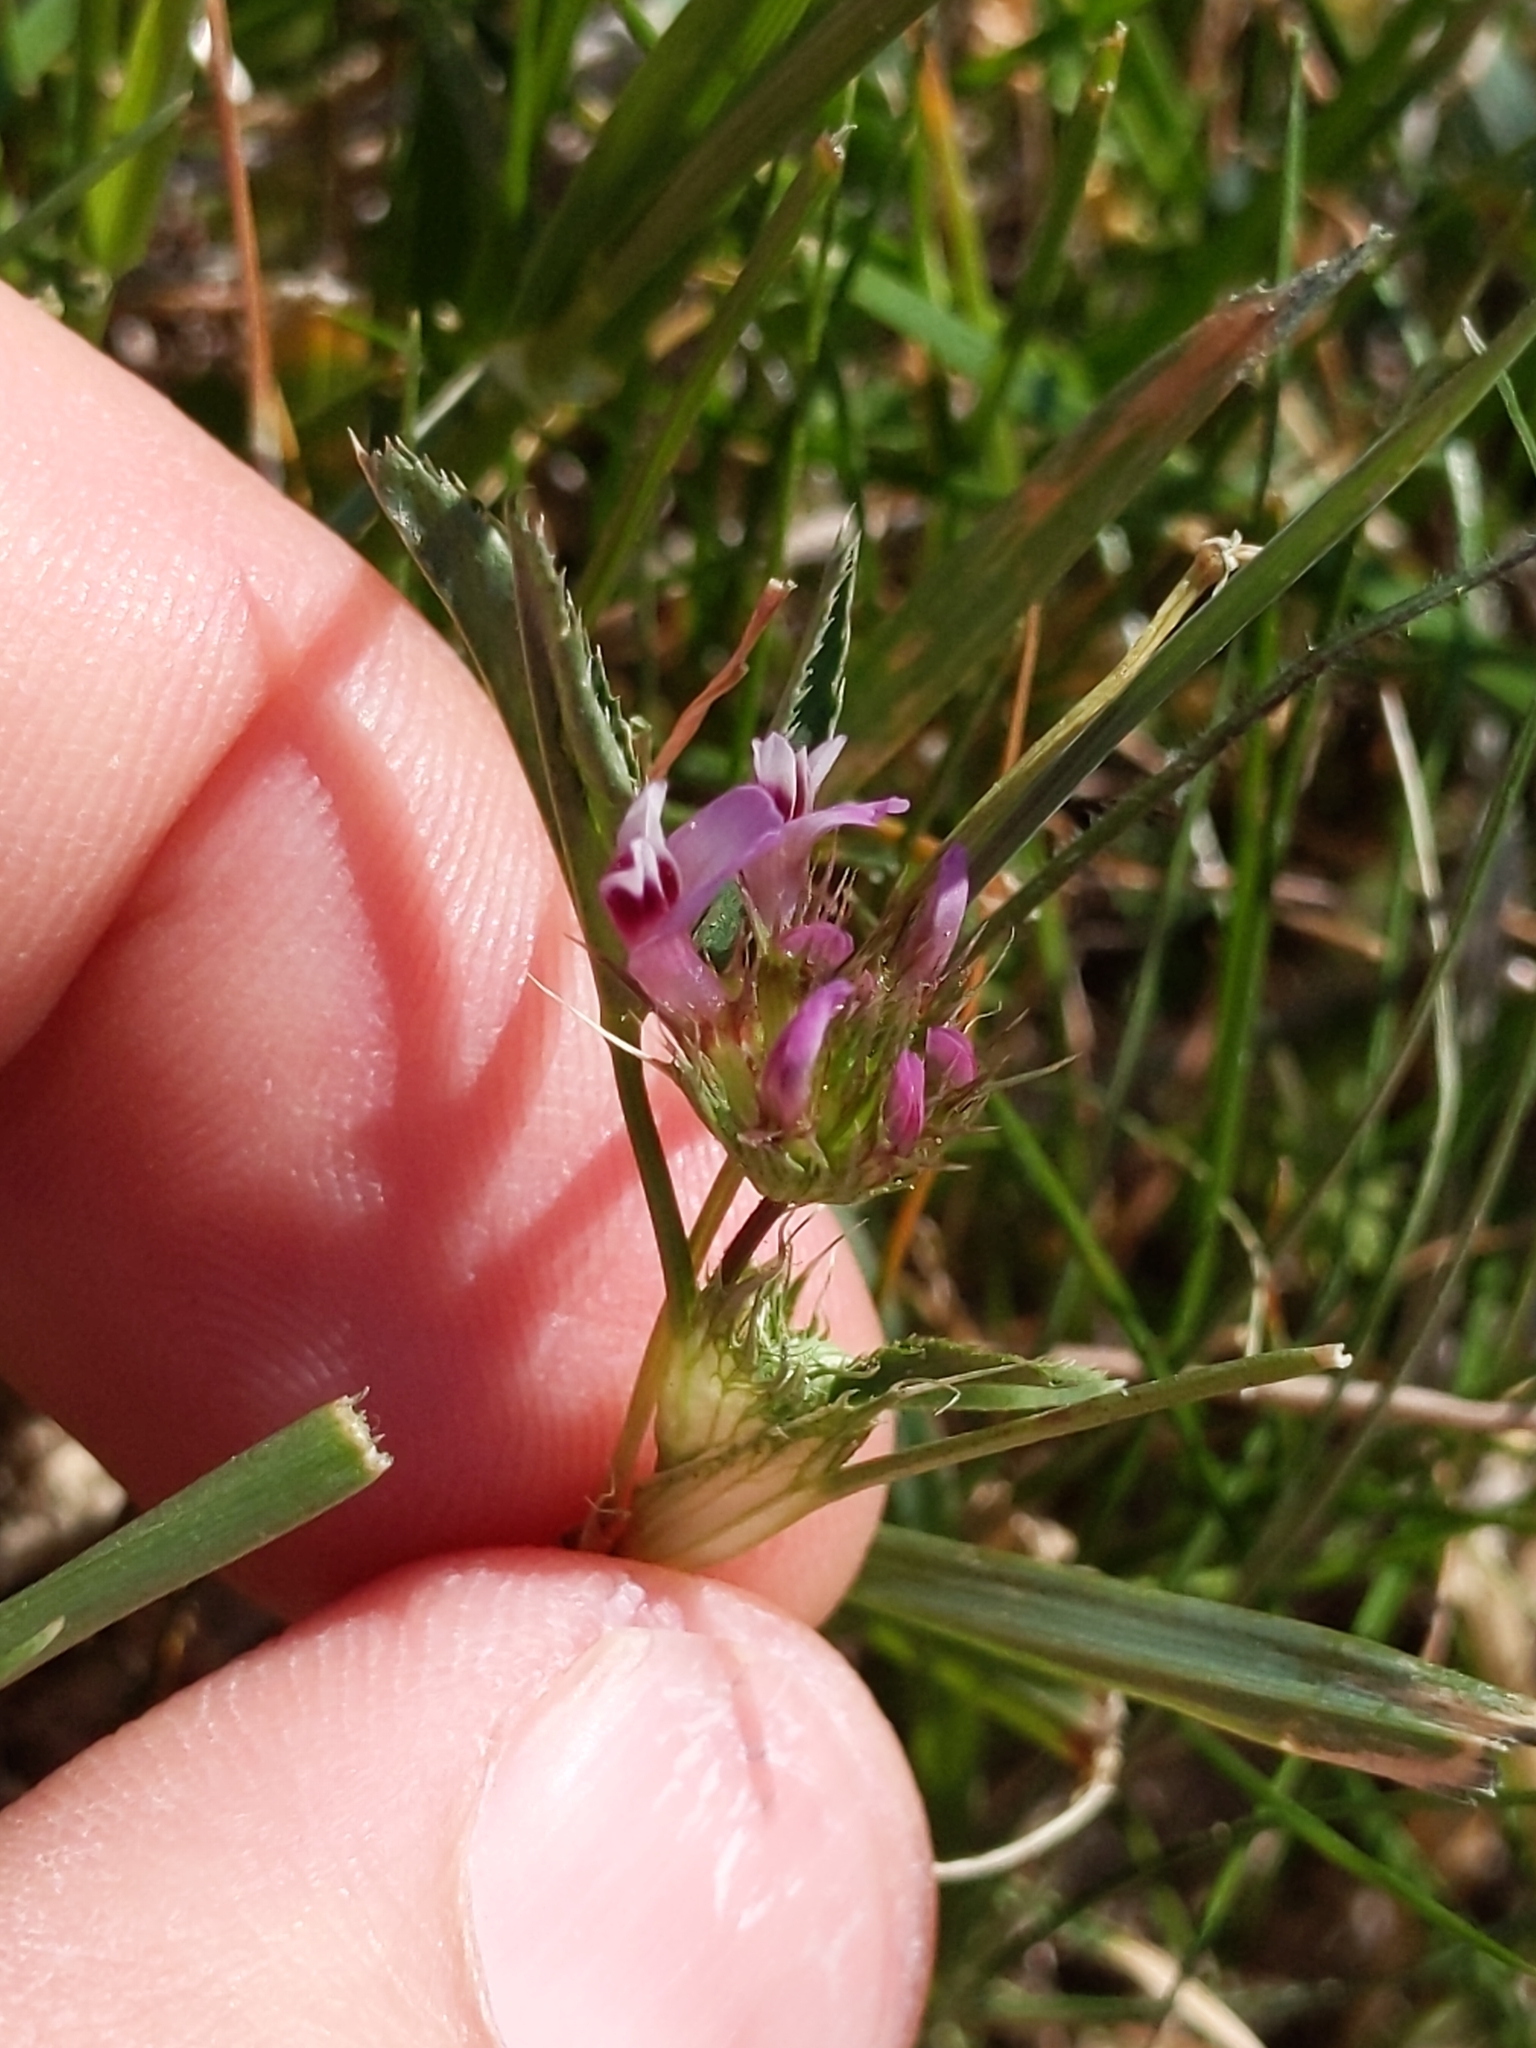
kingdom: Plantae
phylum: Tracheophyta
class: Magnoliopsida
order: Fabales
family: Fabaceae
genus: Trifolium
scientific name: Trifolium willdenovii
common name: Tomcat clover
